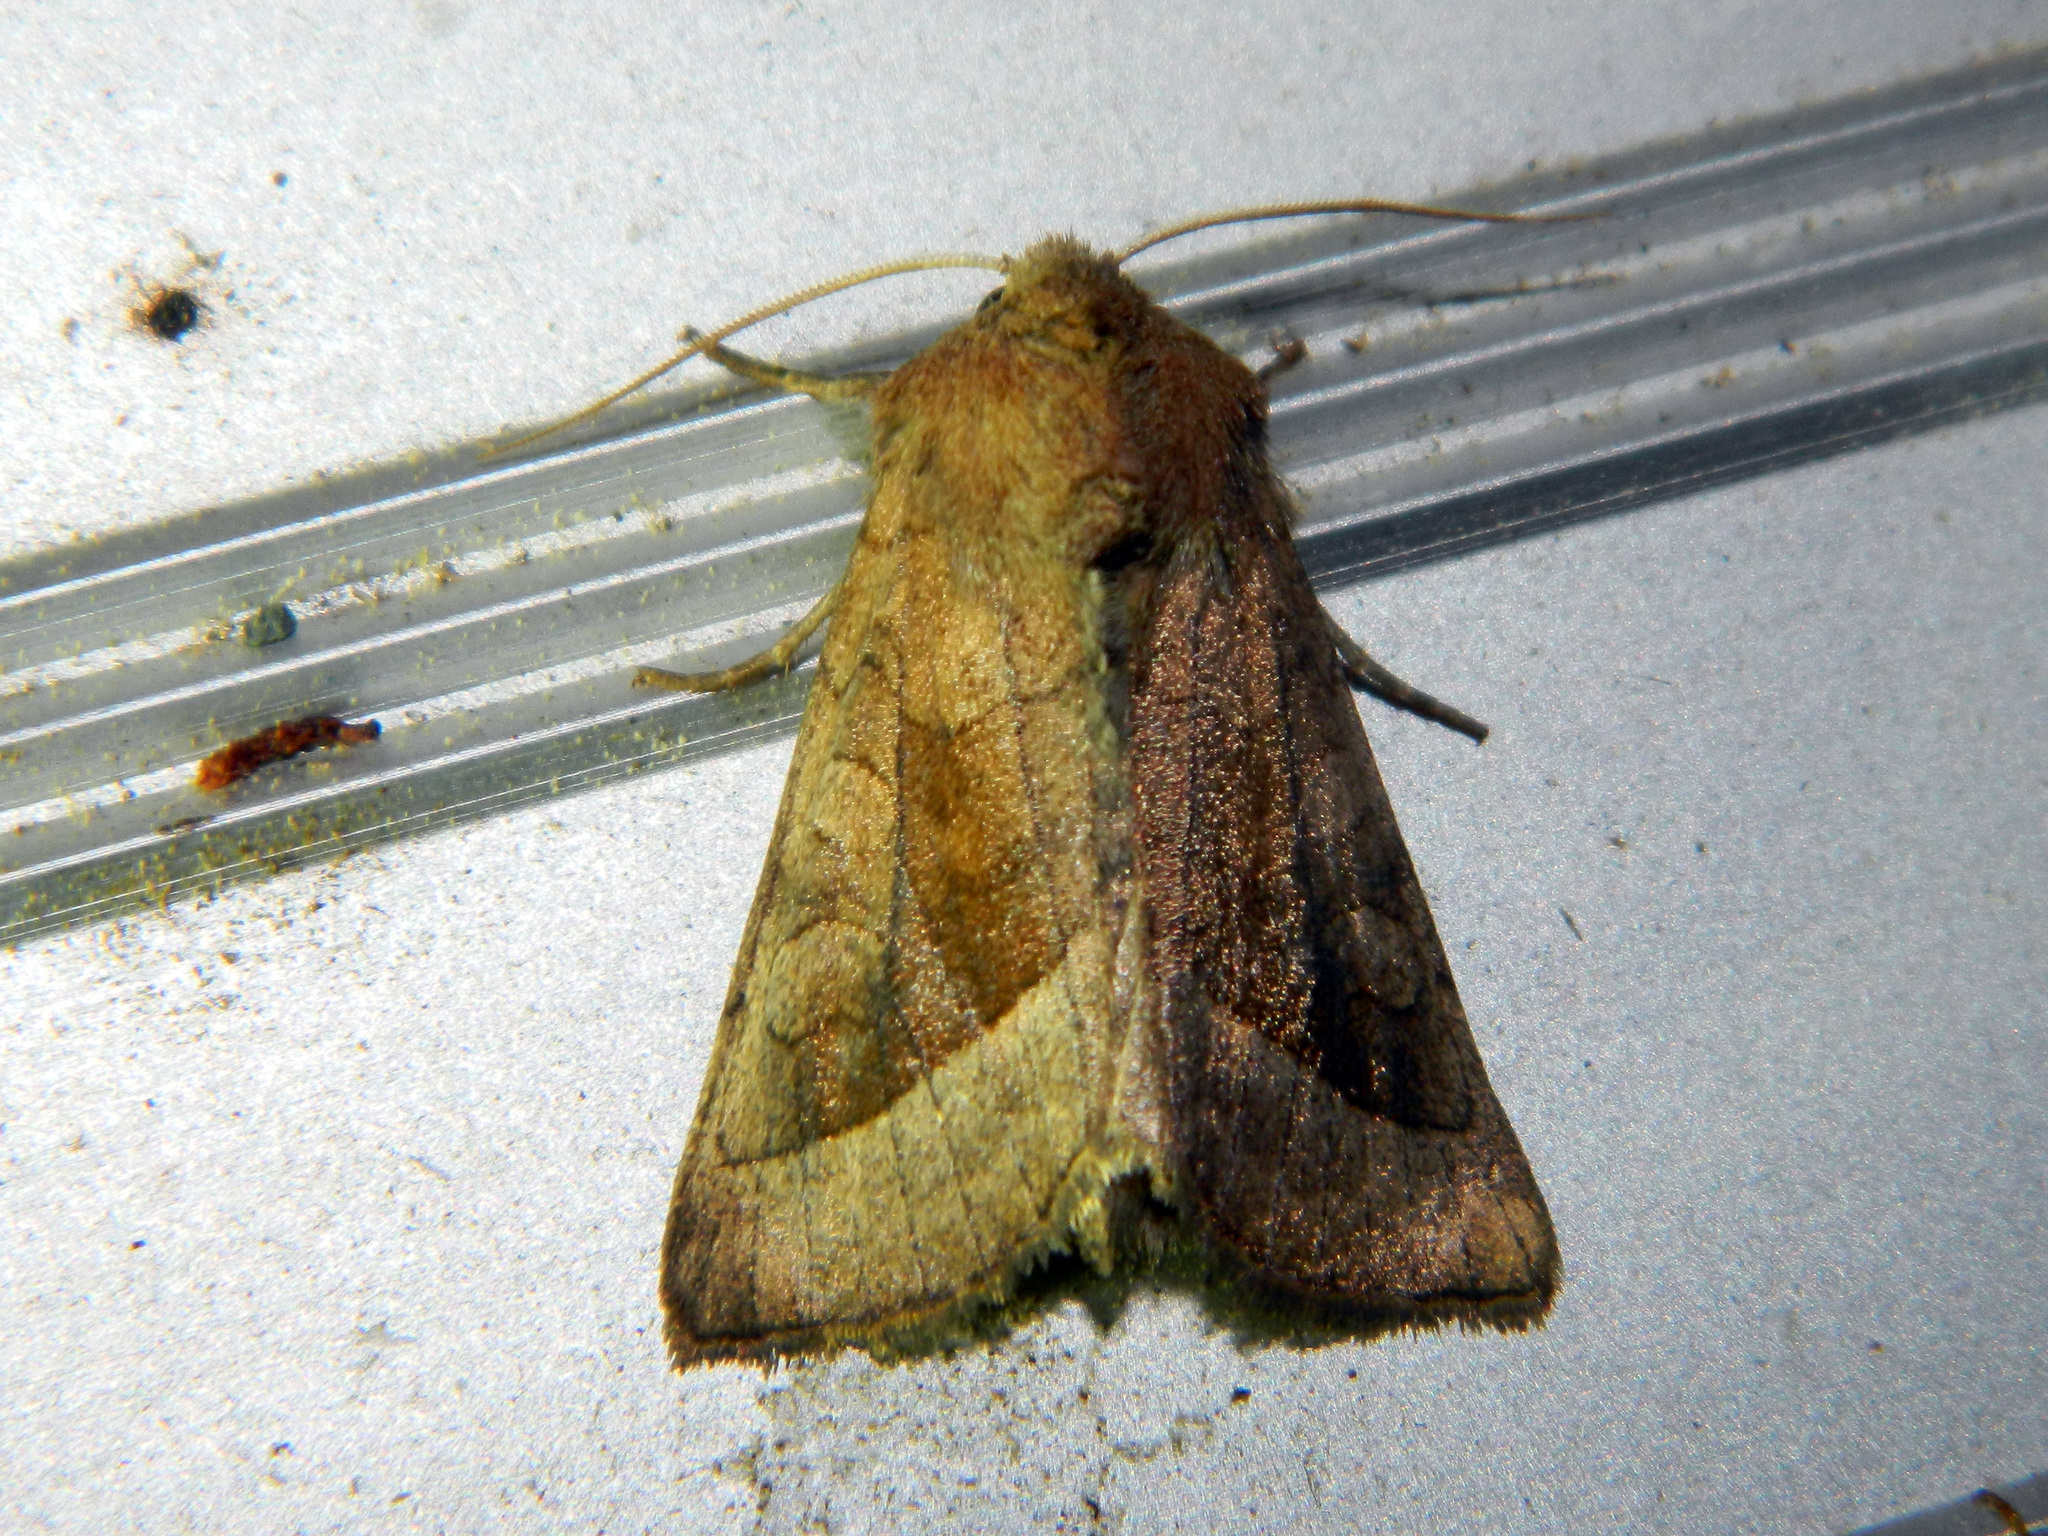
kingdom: Animalia
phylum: Arthropoda
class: Insecta
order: Lepidoptera
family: Noctuidae
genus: Hydraecia
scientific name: Hydraecia micacea
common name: Rosy rustic
